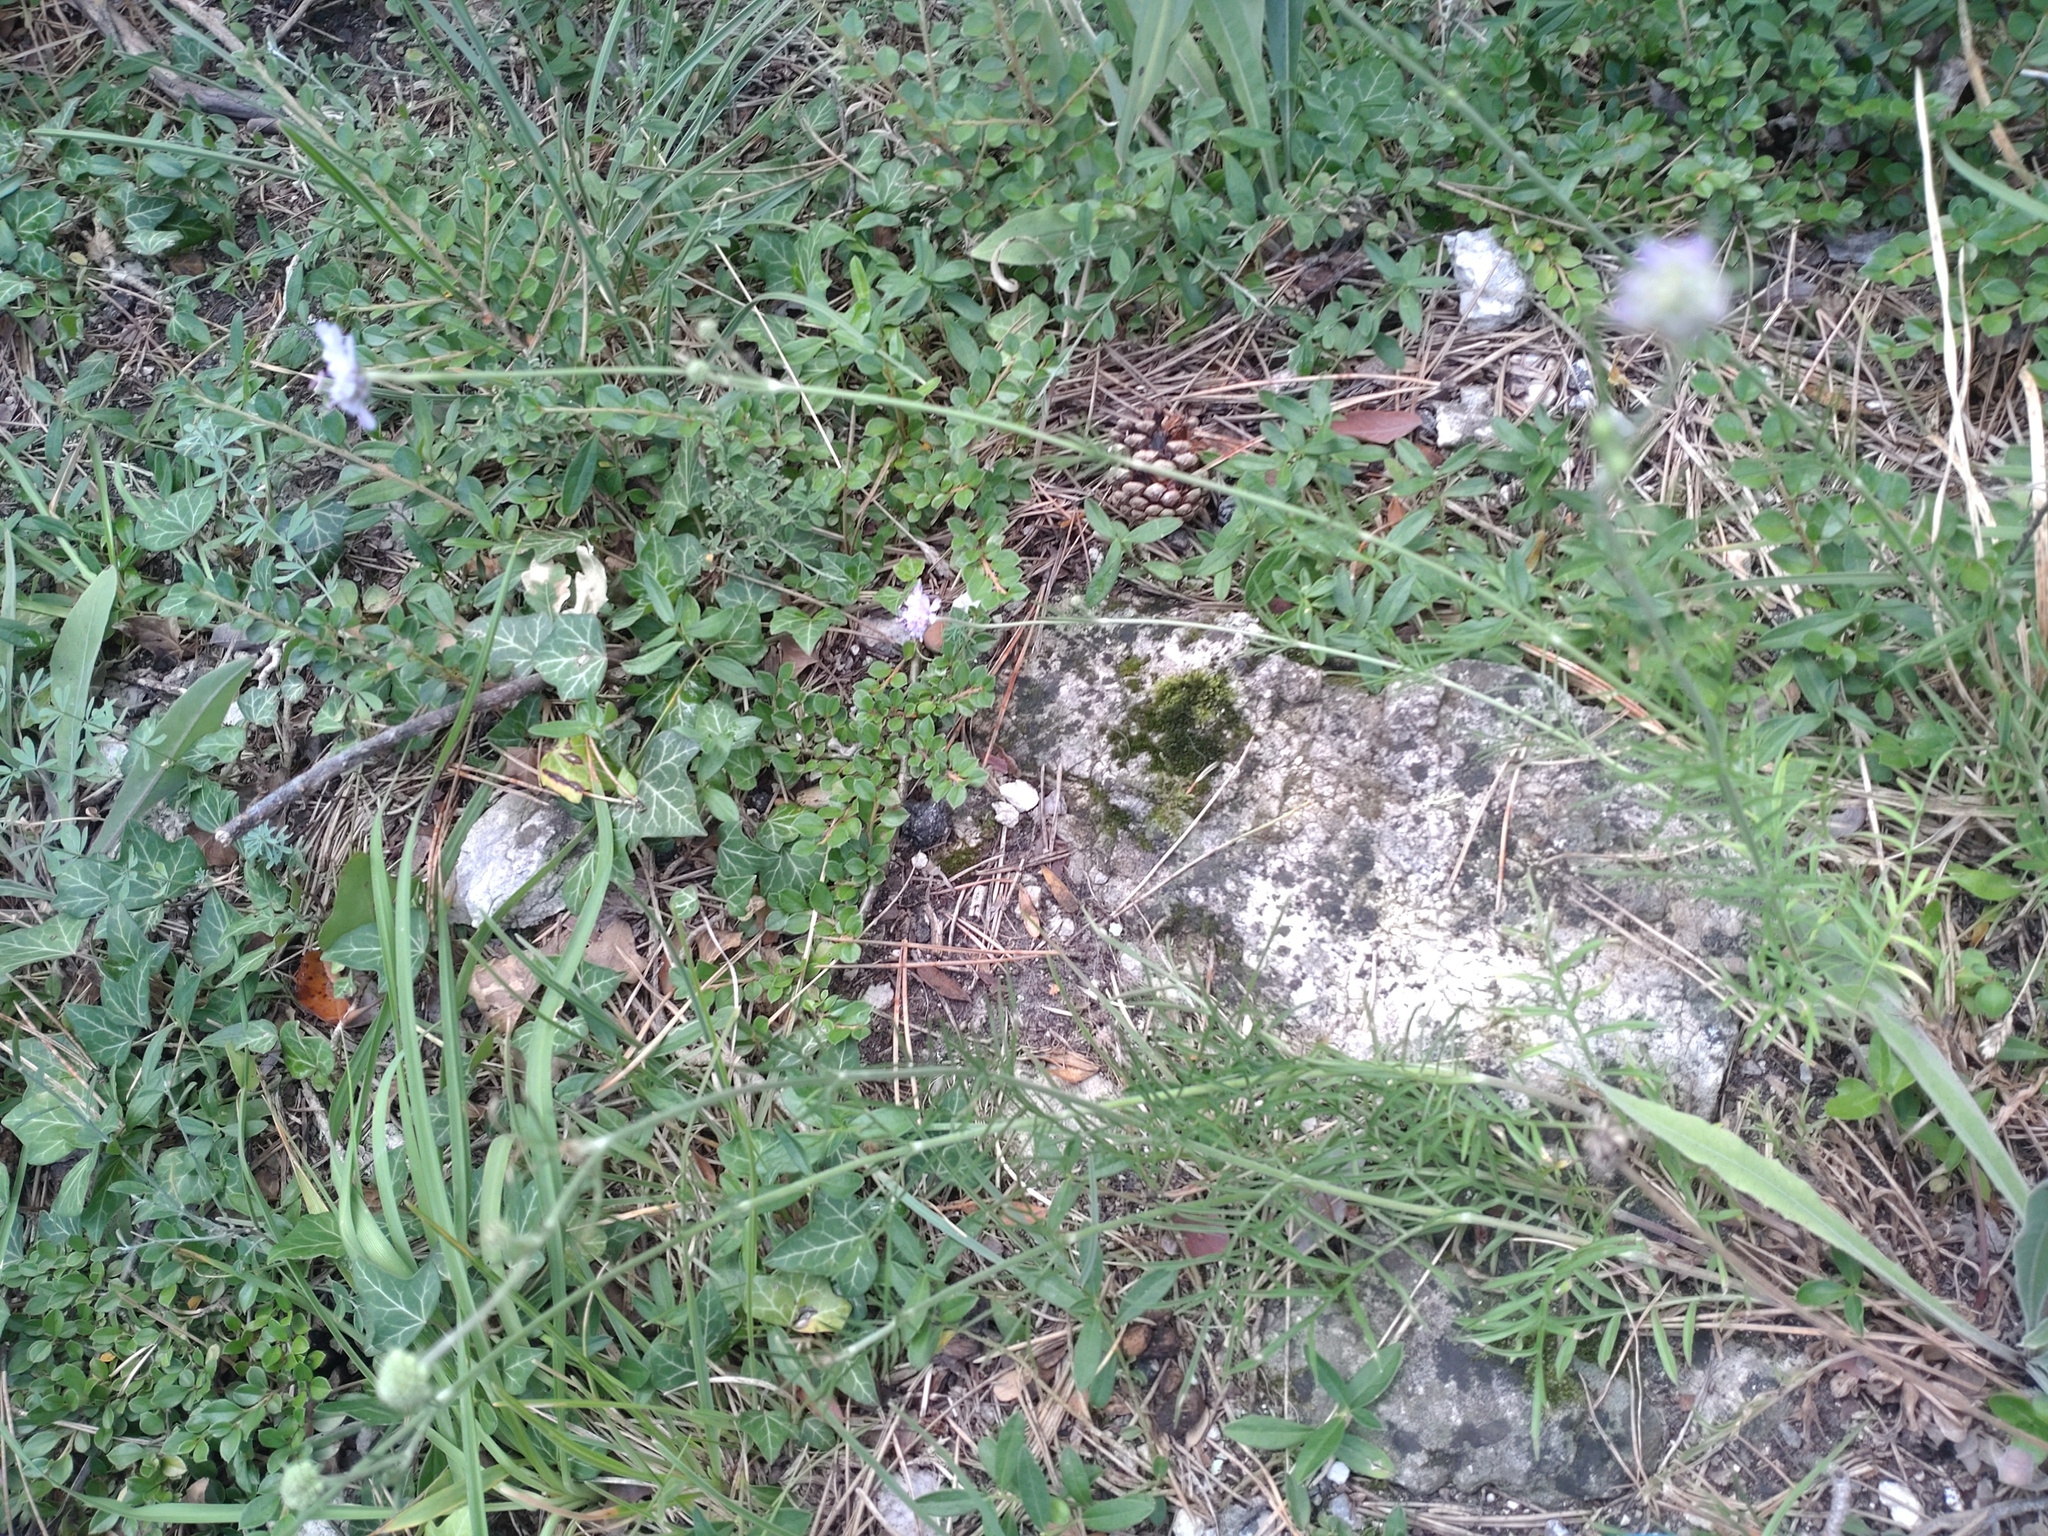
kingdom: Plantae
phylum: Tracheophyta
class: Magnoliopsida
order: Dipsacales
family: Caprifoliaceae
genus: Scabiosa
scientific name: Scabiosa canescens
